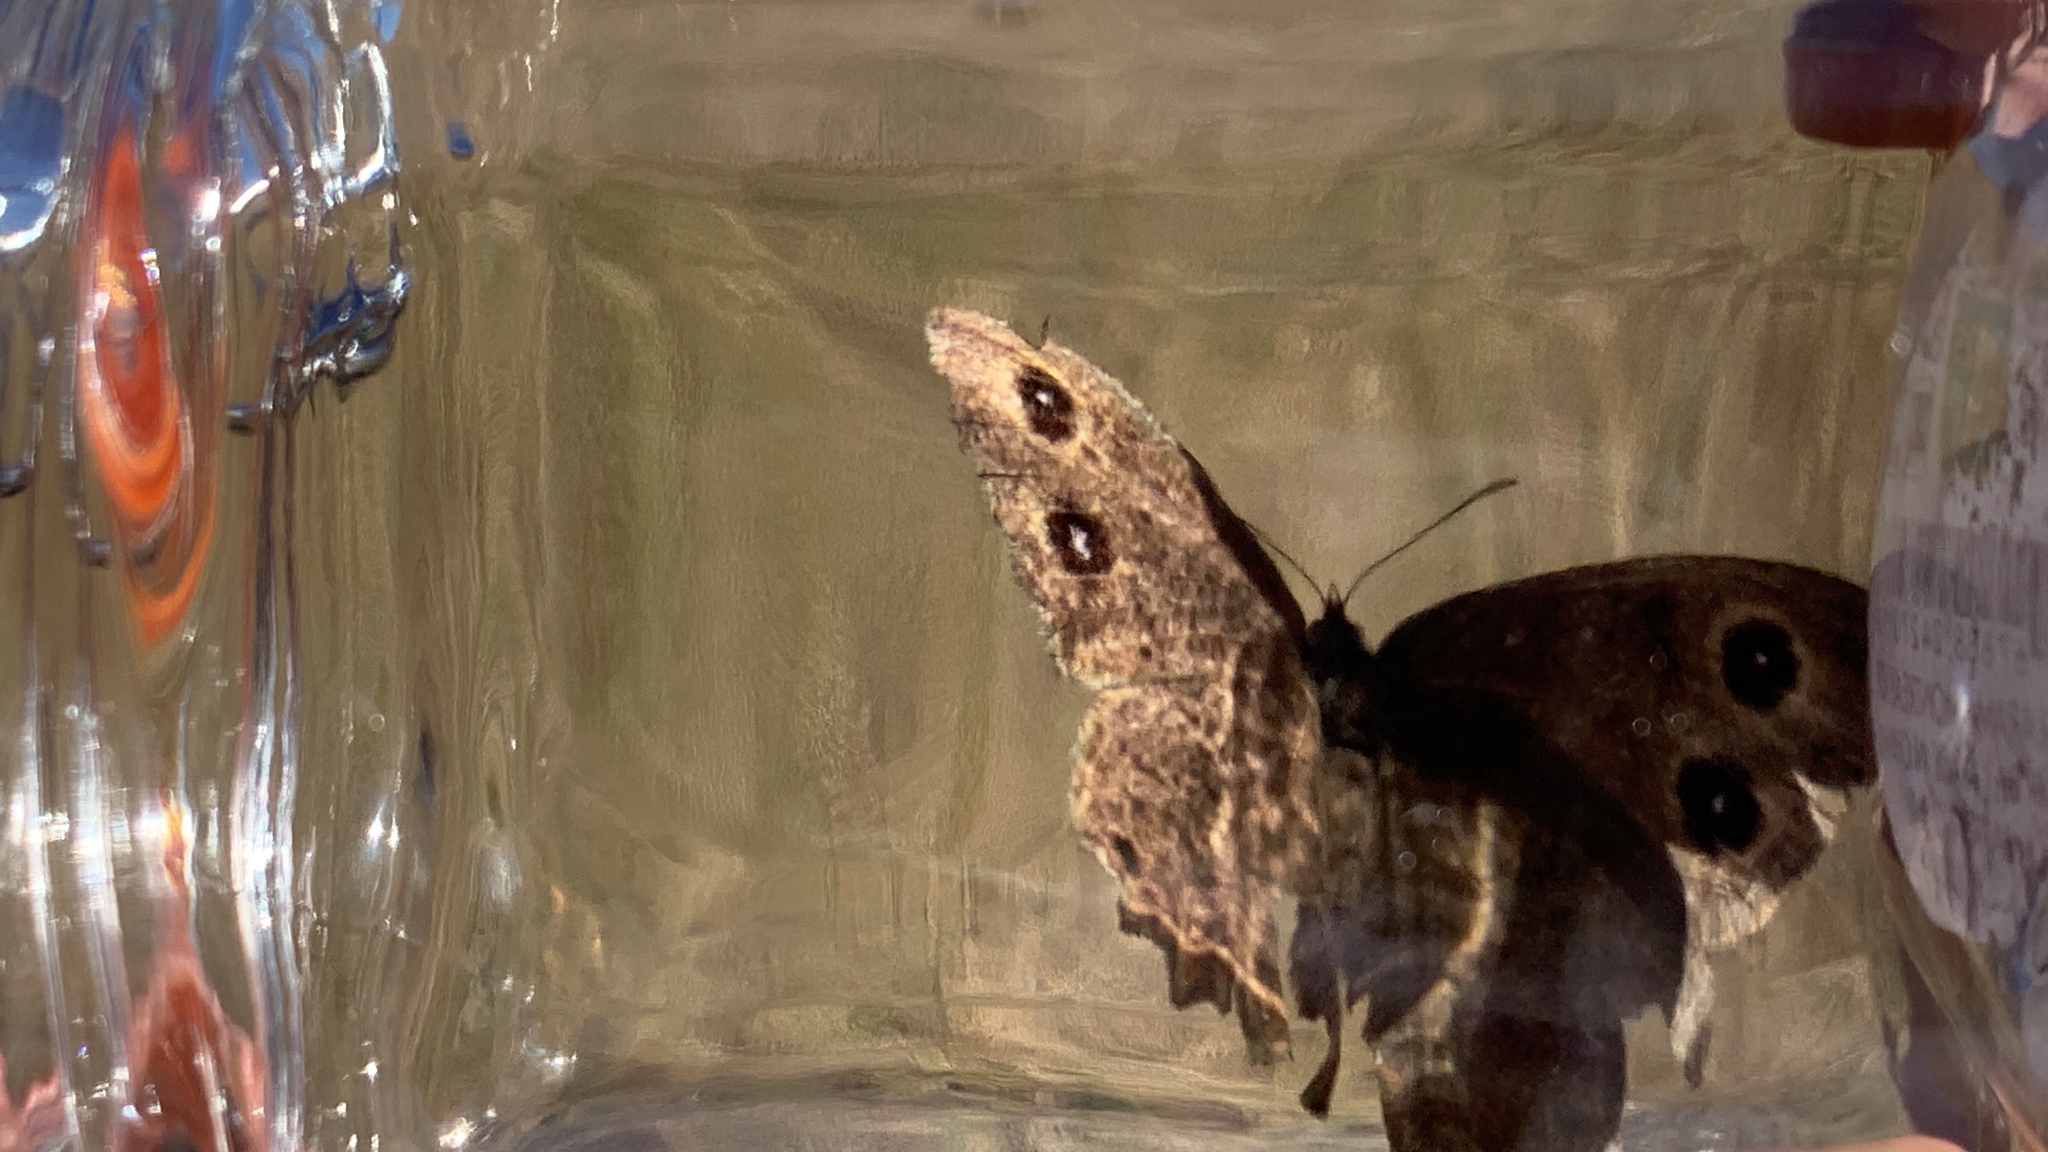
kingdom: Animalia
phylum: Arthropoda
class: Insecta
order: Lepidoptera
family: Nymphalidae
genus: Cercyonis
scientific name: Cercyonis pegala
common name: Common wood-nymph
